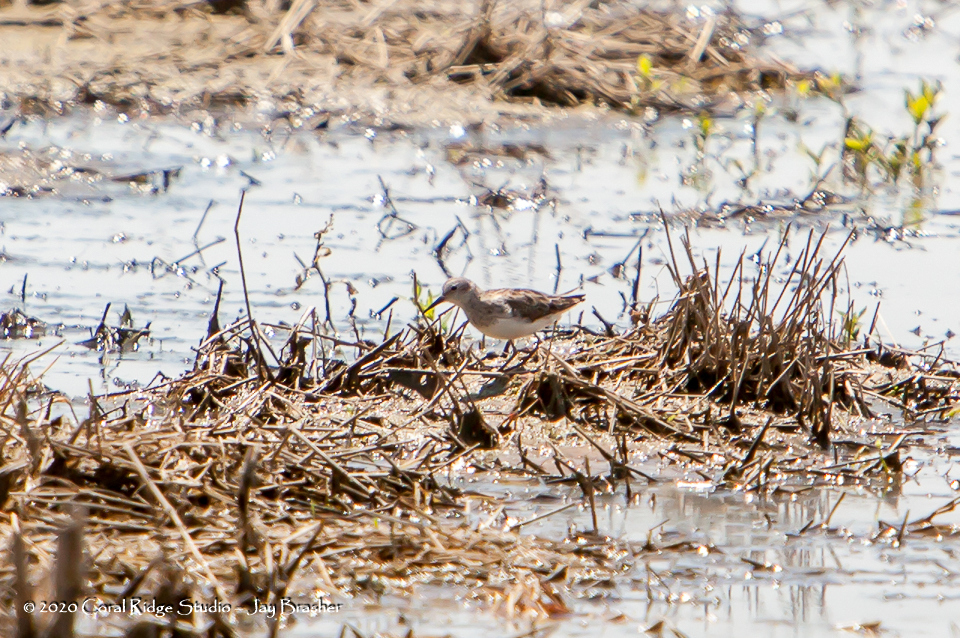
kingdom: Animalia
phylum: Chordata
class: Aves
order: Charadriiformes
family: Scolopacidae
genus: Calidris
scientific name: Calidris minutilla
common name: Least sandpiper
